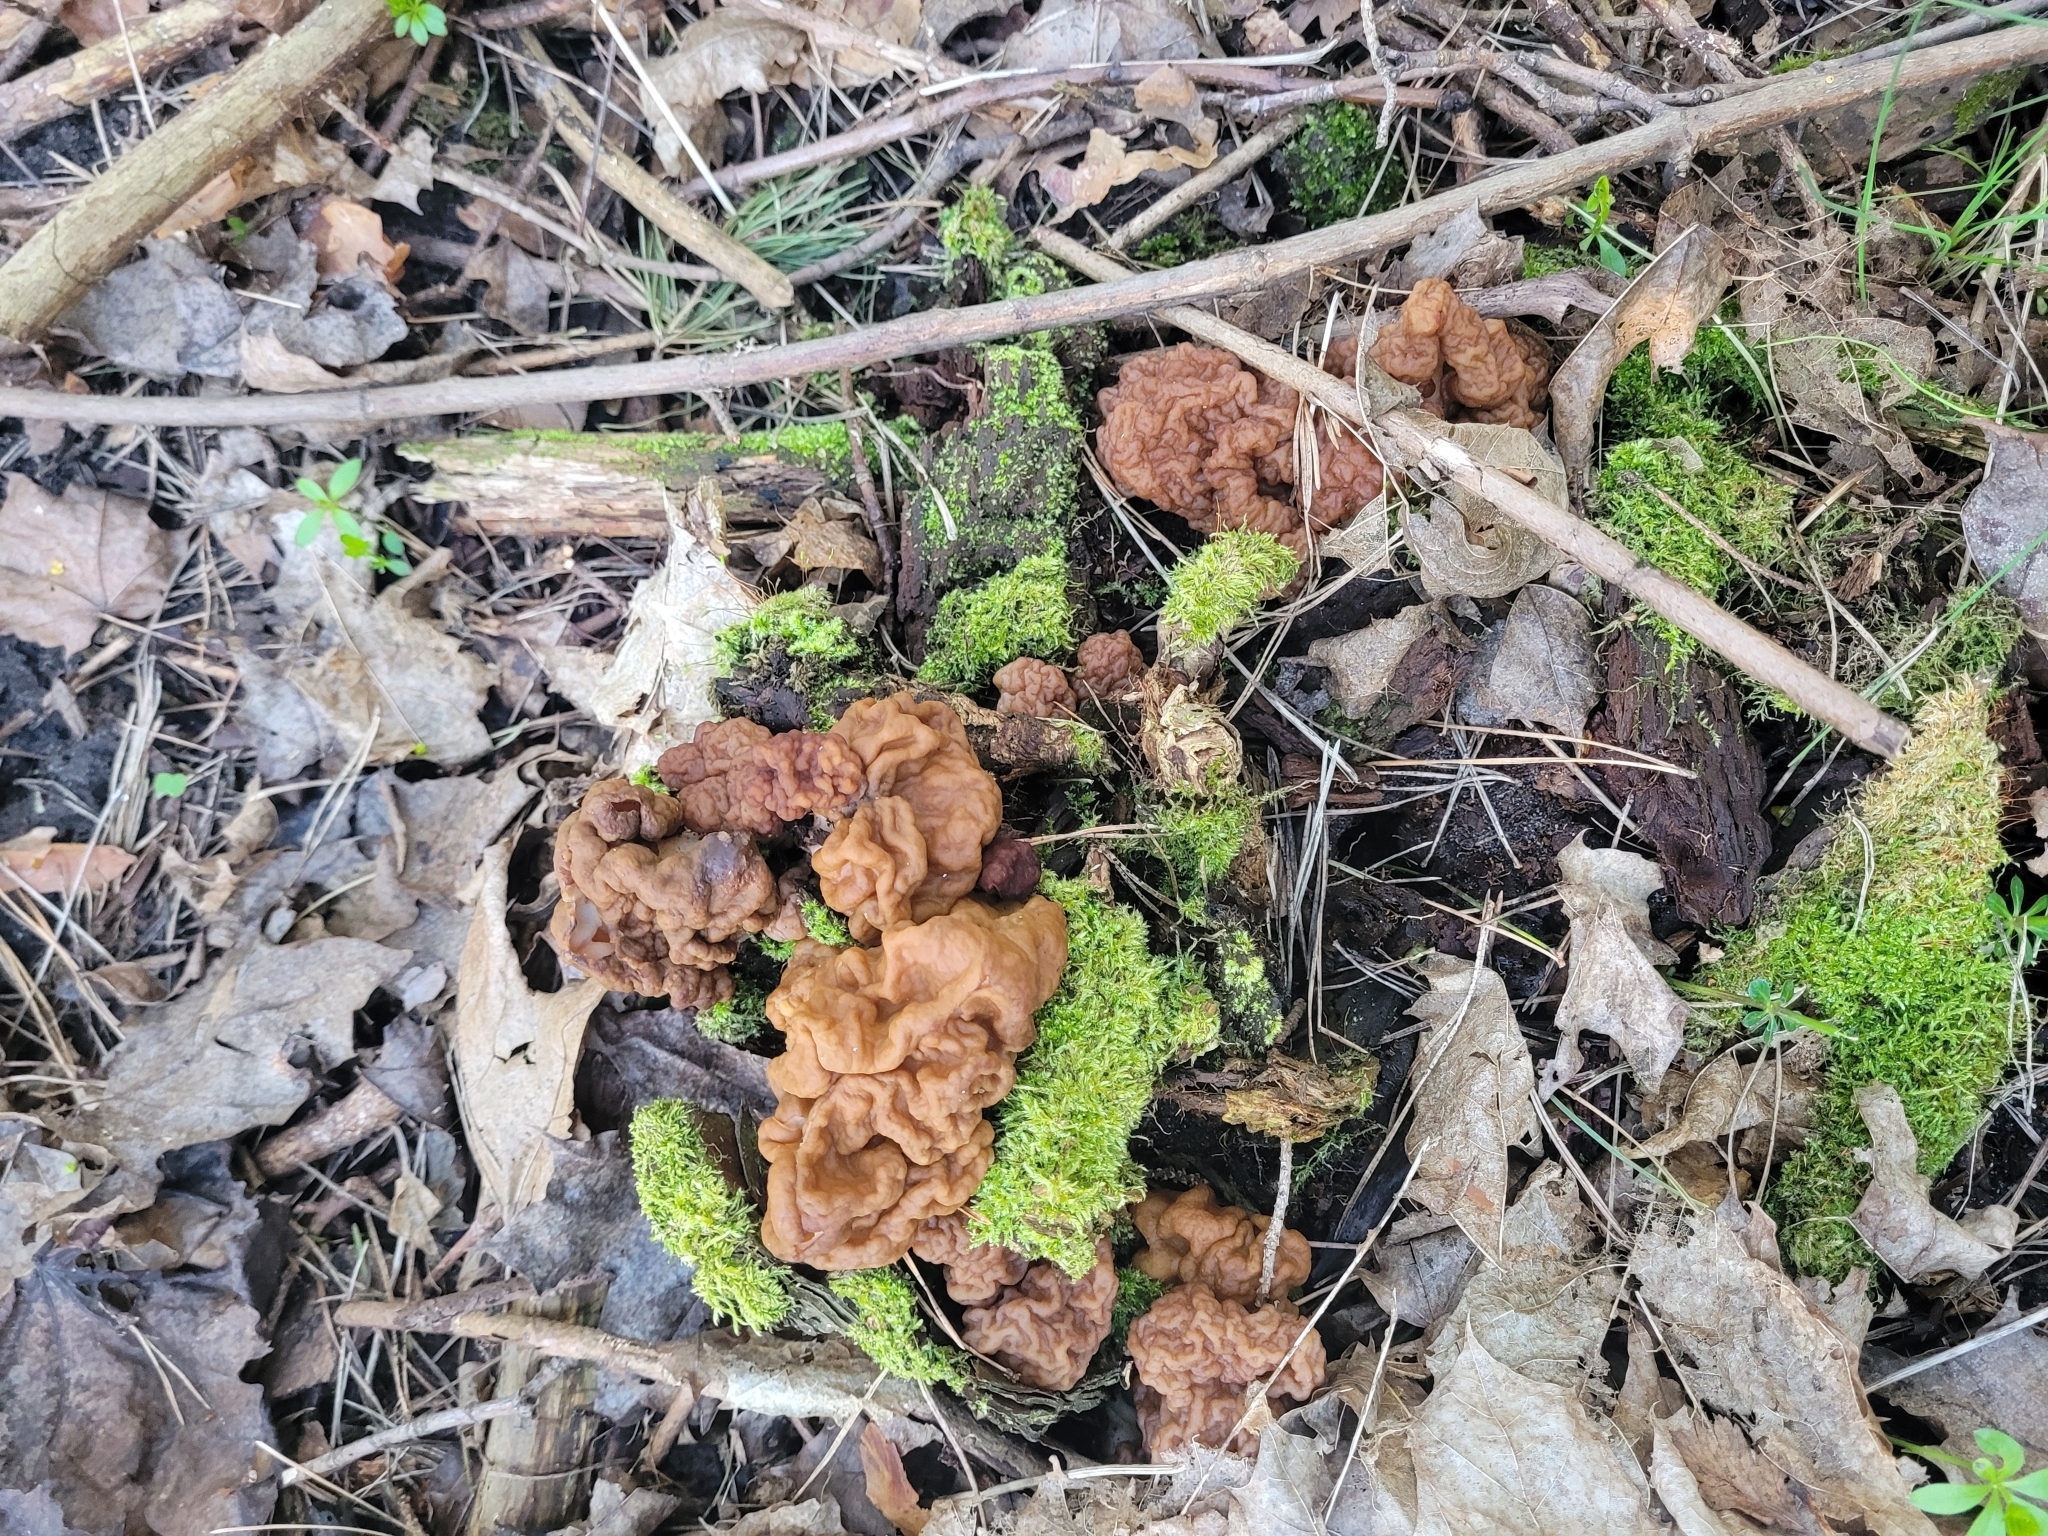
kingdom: Fungi
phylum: Ascomycota
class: Pezizomycetes
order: Pezizales
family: Discinaceae
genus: Gyromitra
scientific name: Gyromitra gigas
